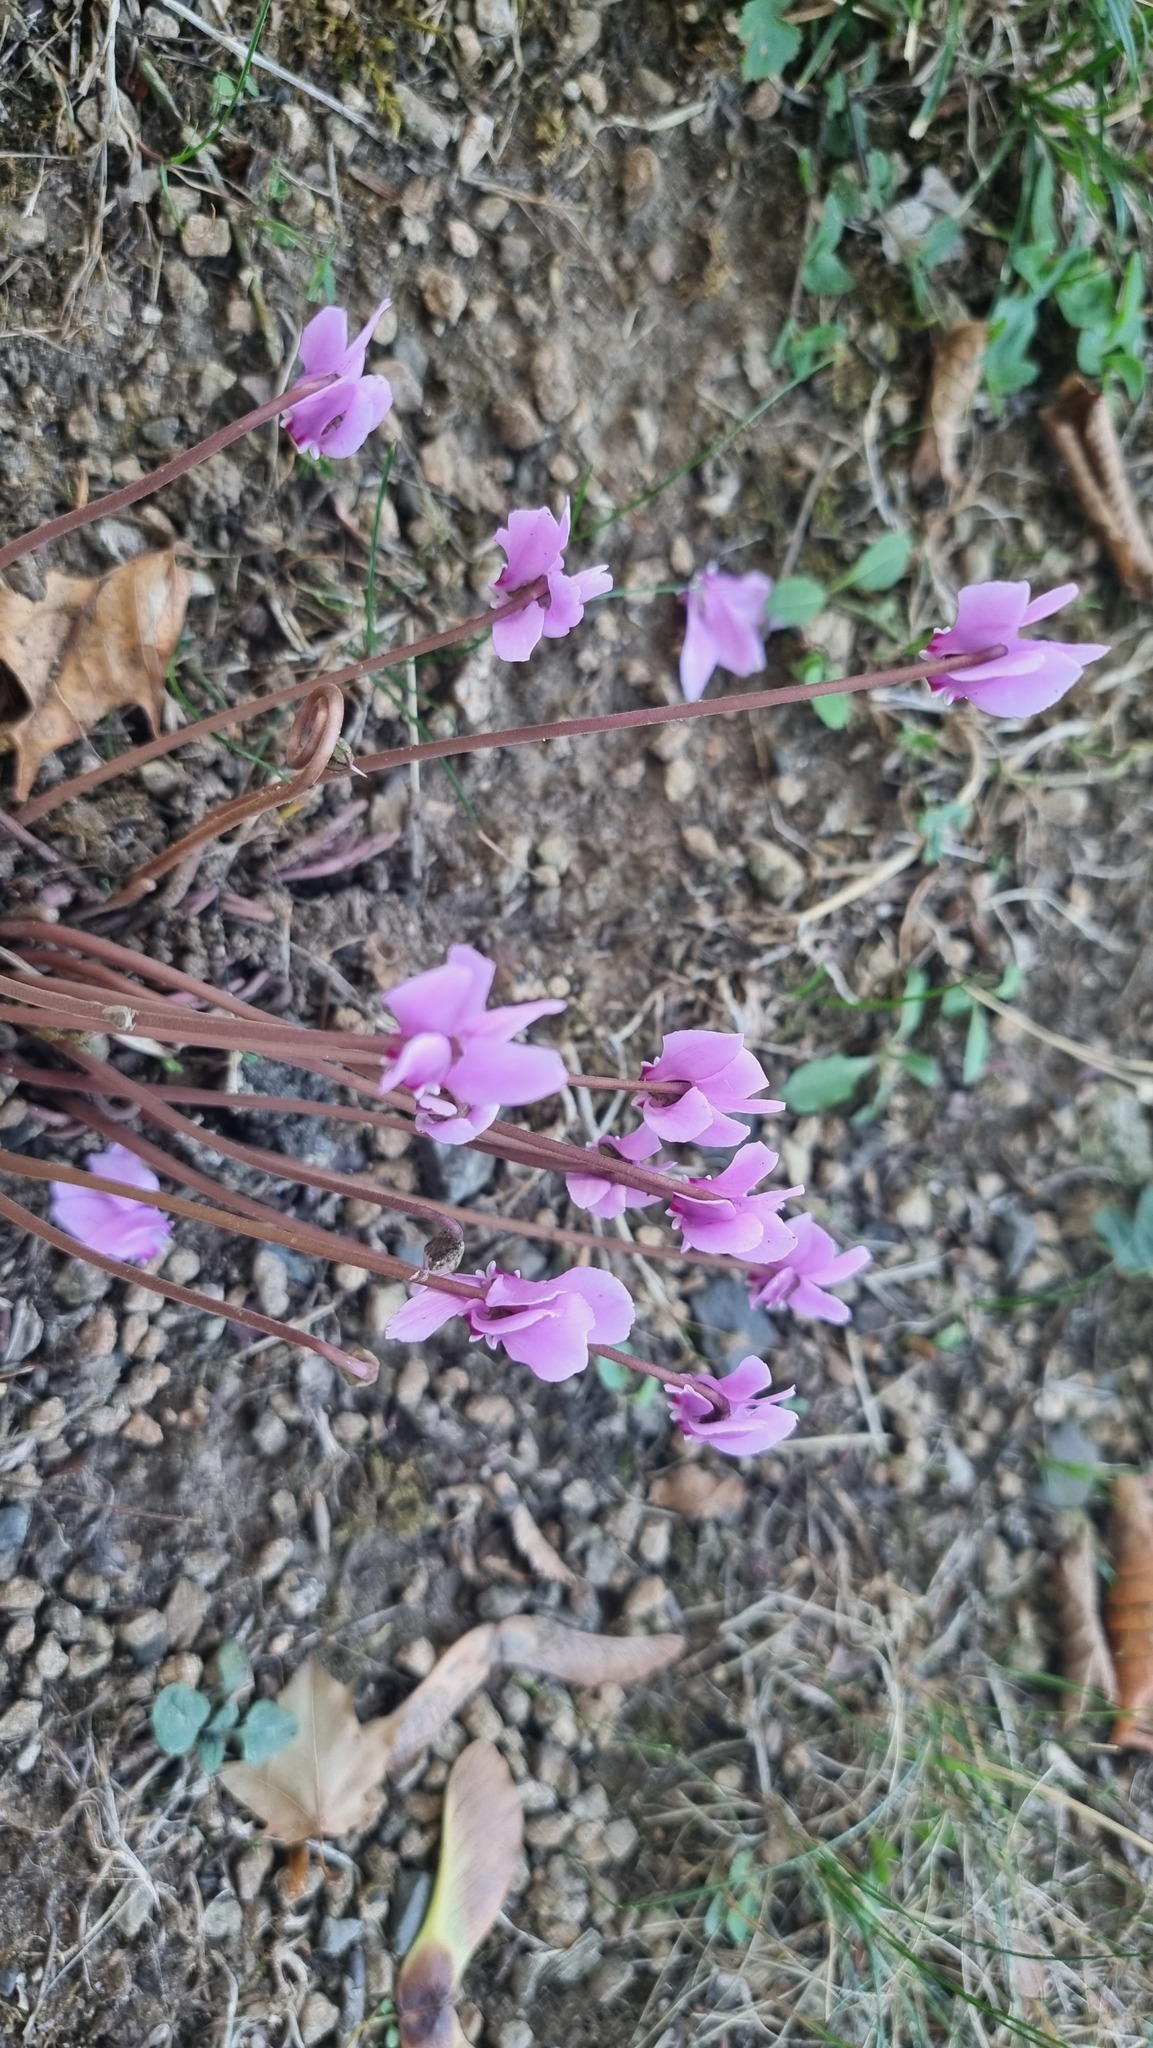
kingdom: Plantae
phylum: Tracheophyta
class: Magnoliopsida
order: Ericales
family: Primulaceae
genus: Cyclamen
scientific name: Cyclamen hederifolium
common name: Sowbread
